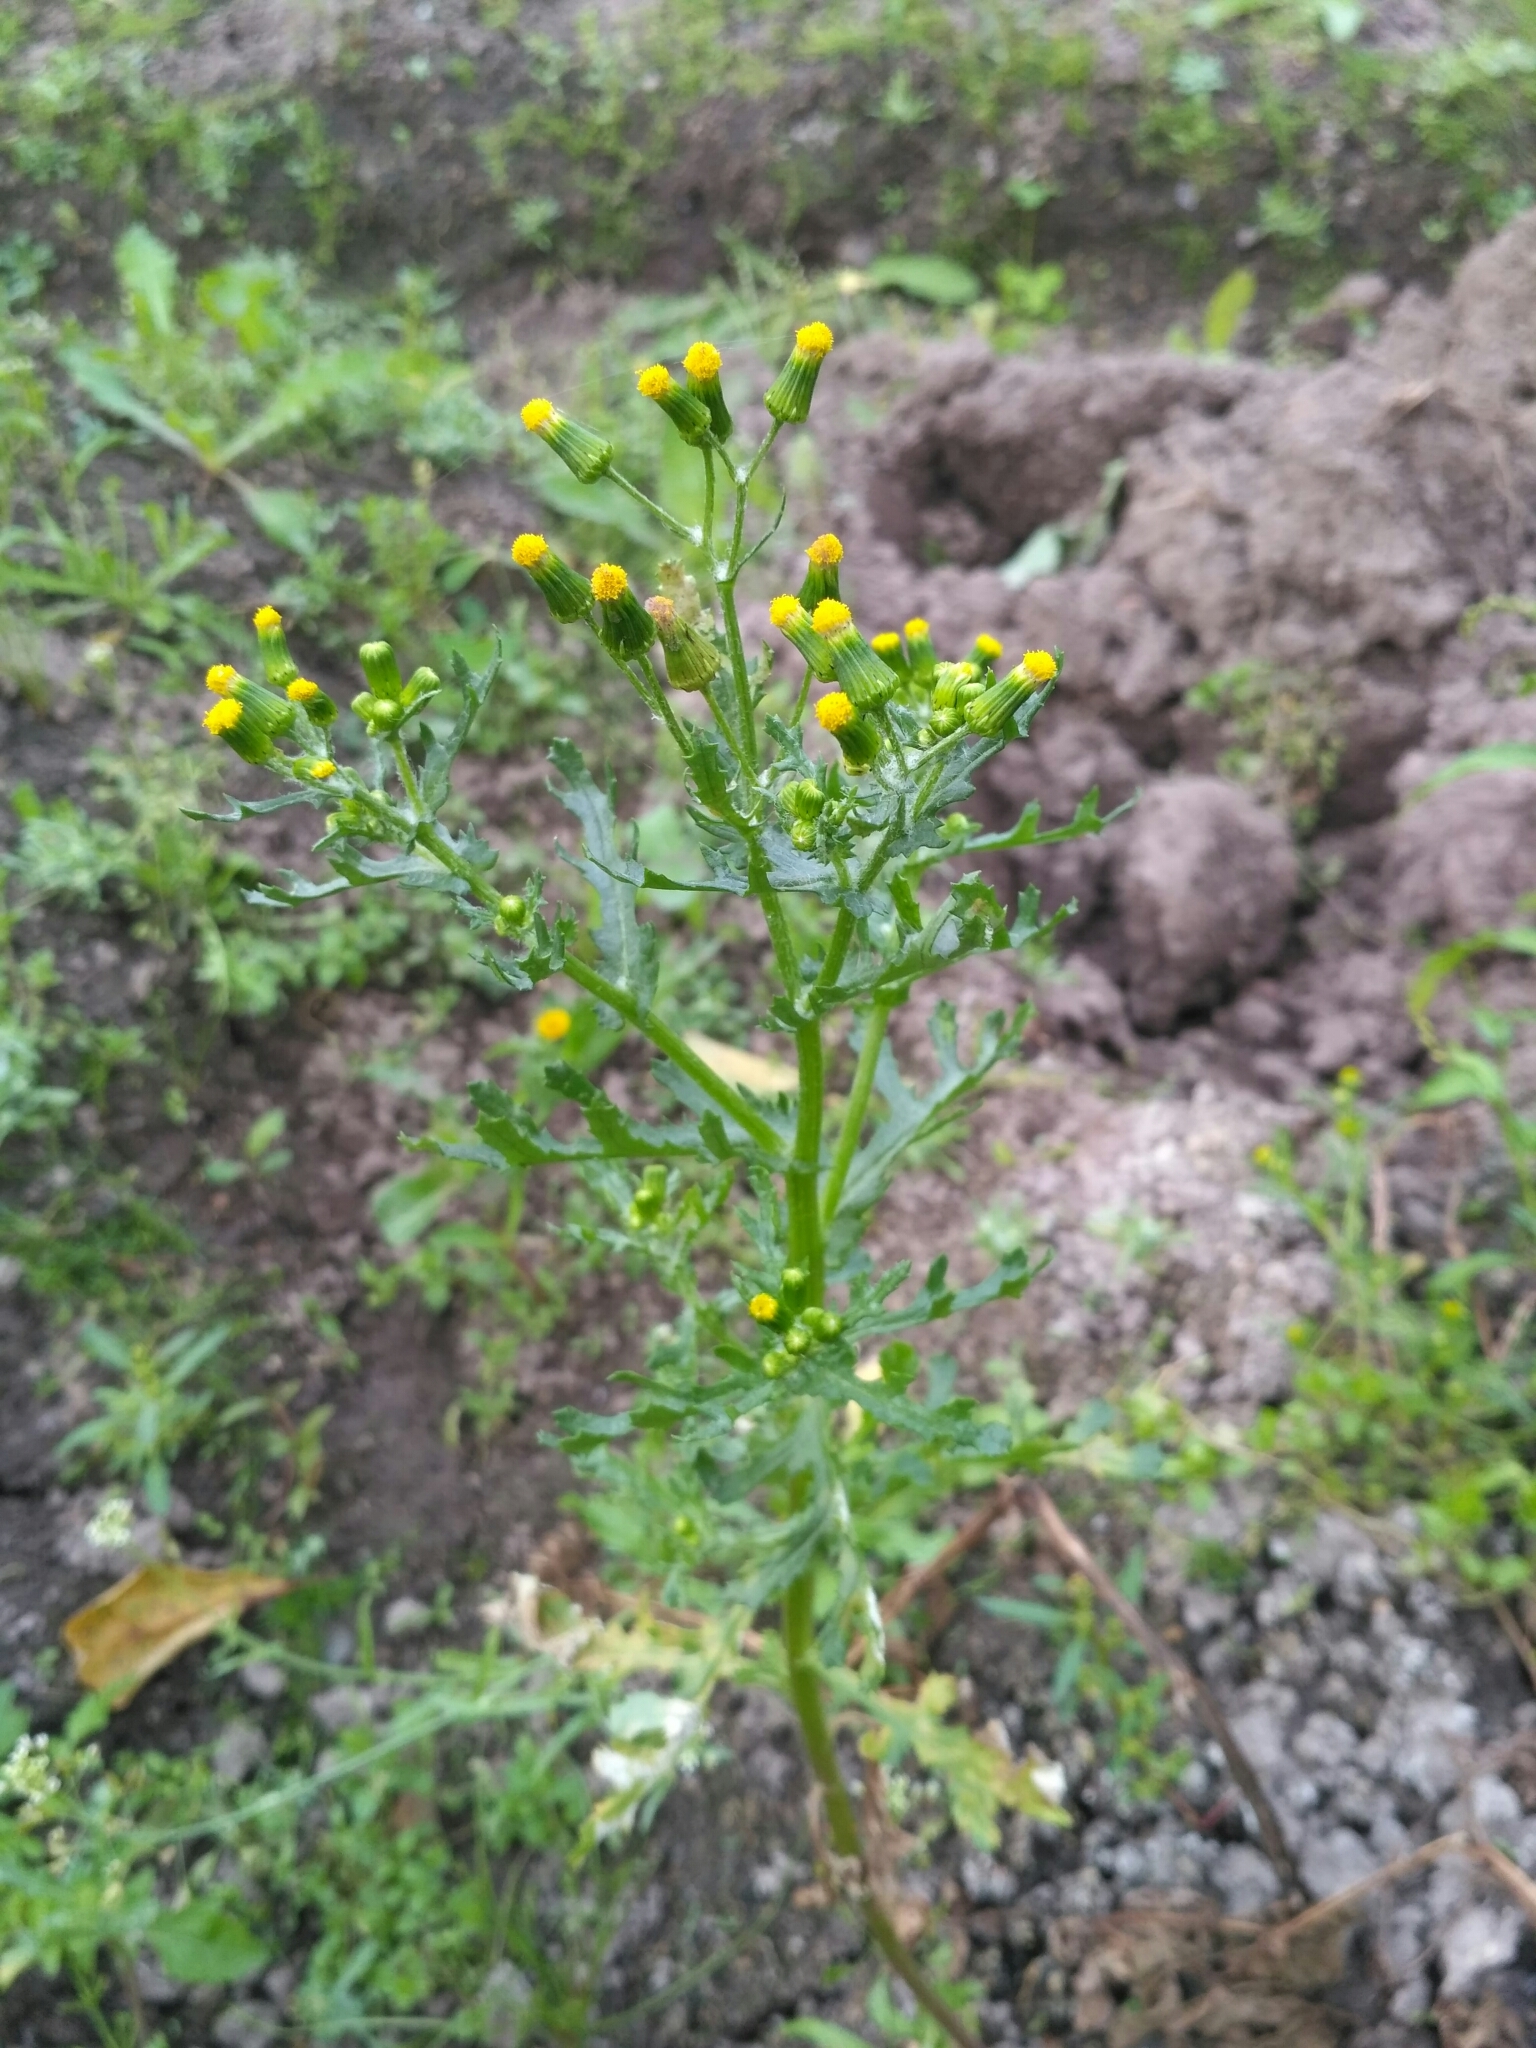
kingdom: Plantae
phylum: Tracheophyta
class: Magnoliopsida
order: Asterales
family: Asteraceae
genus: Senecio
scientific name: Senecio vulgaris
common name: Old-man-in-the-spring
